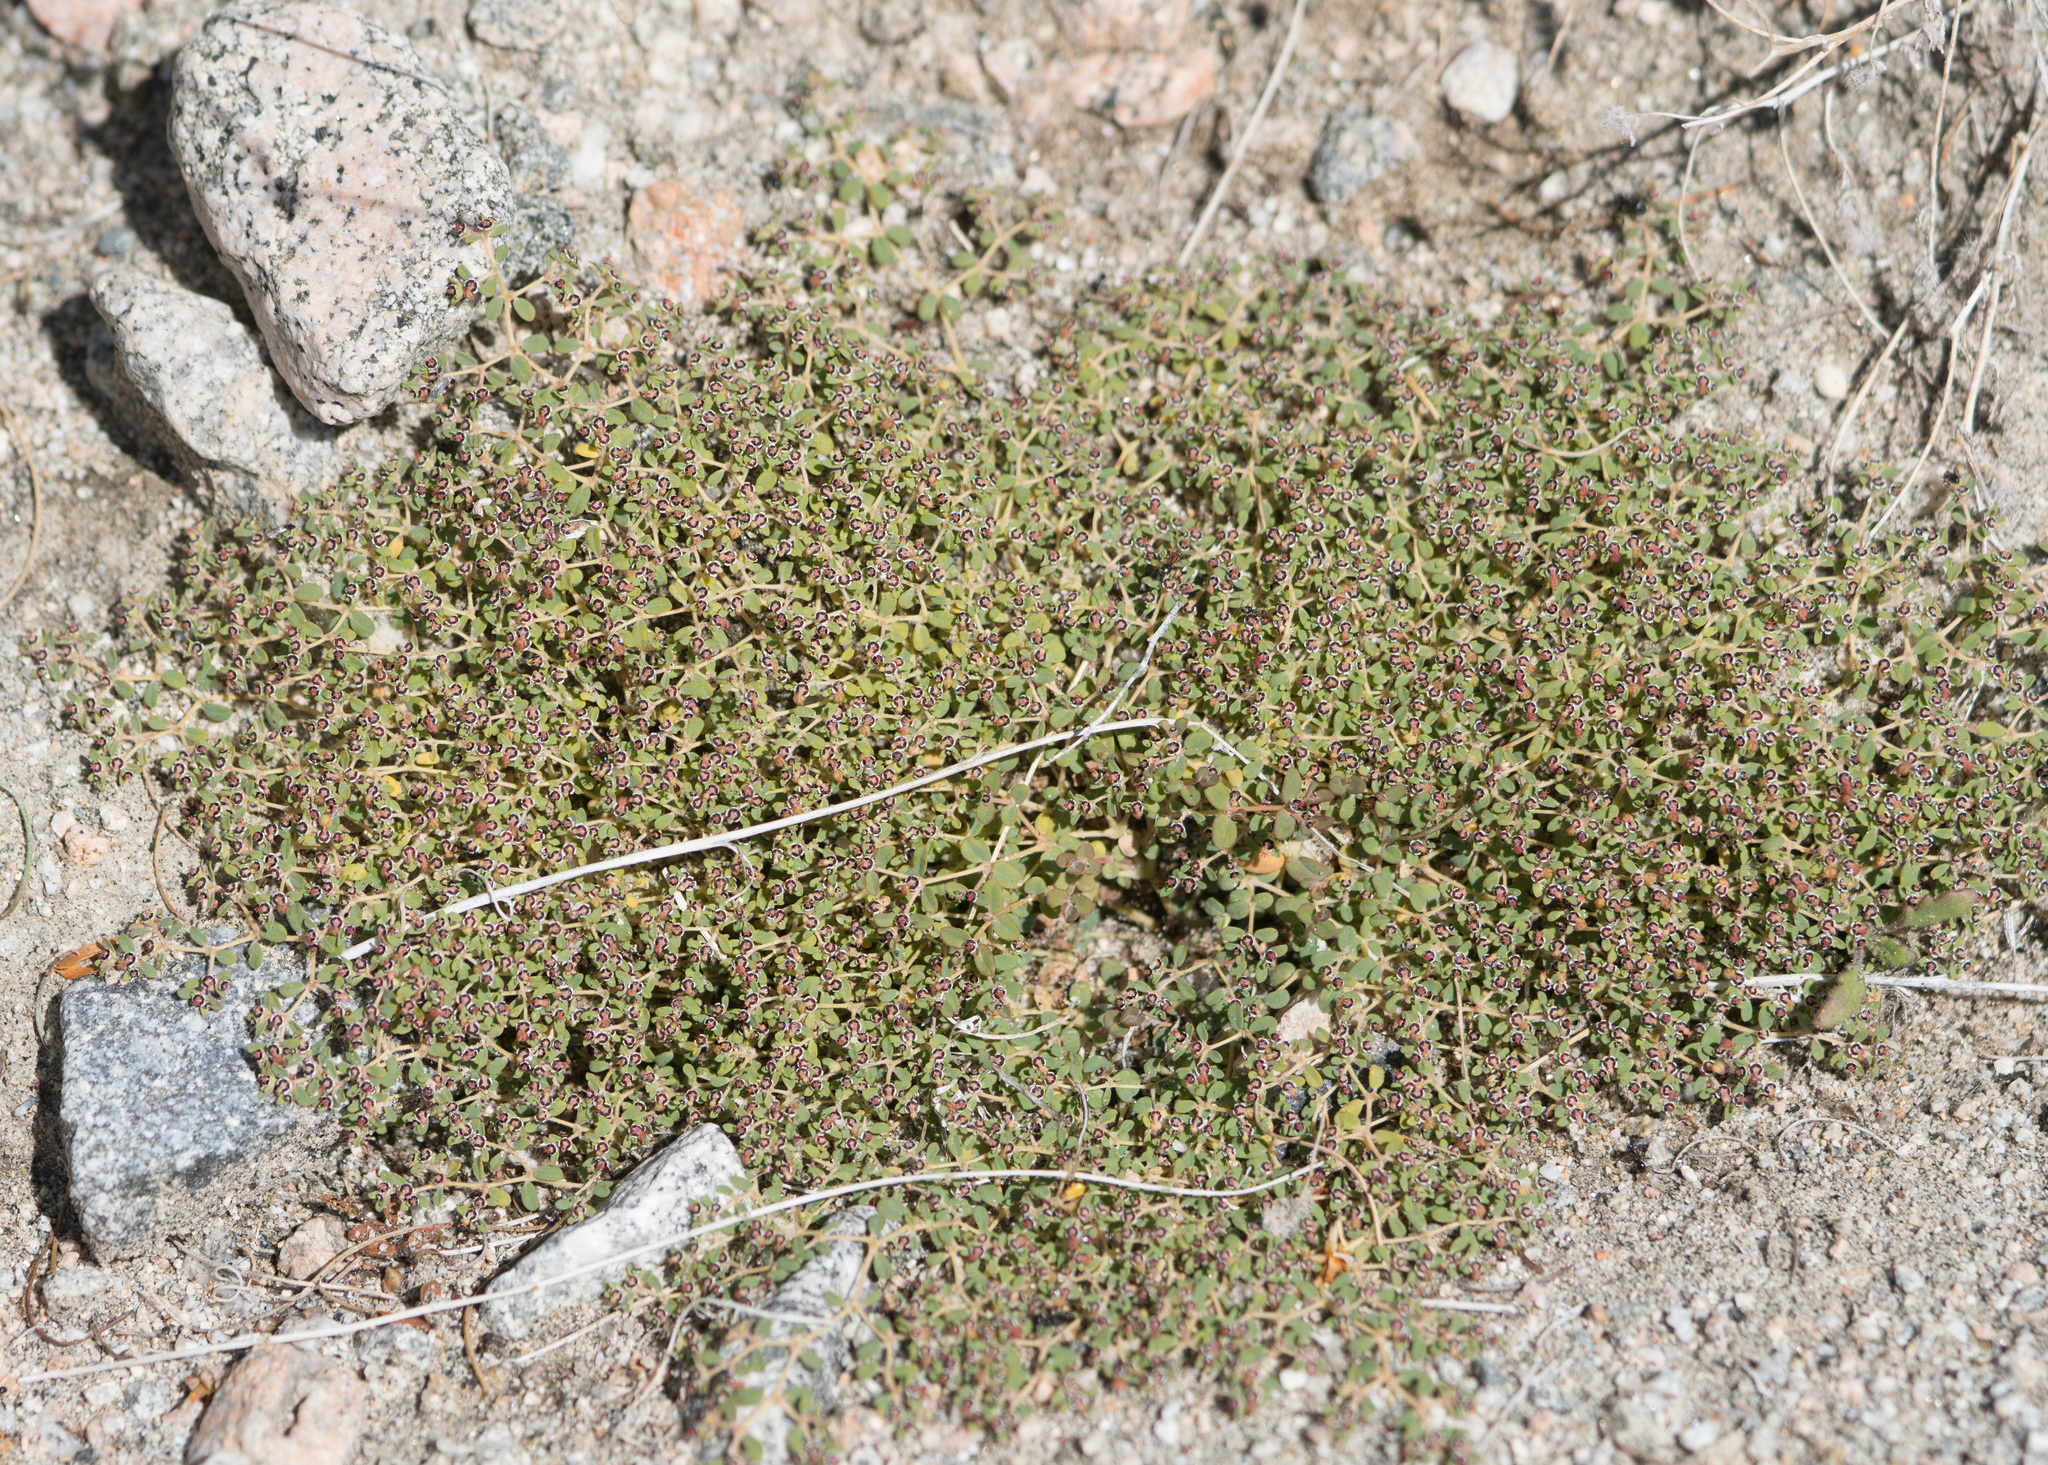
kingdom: Plantae
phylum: Tracheophyta
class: Magnoliopsida
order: Malpighiales
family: Euphorbiaceae
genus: Euphorbia
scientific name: Euphorbia polycarpa
